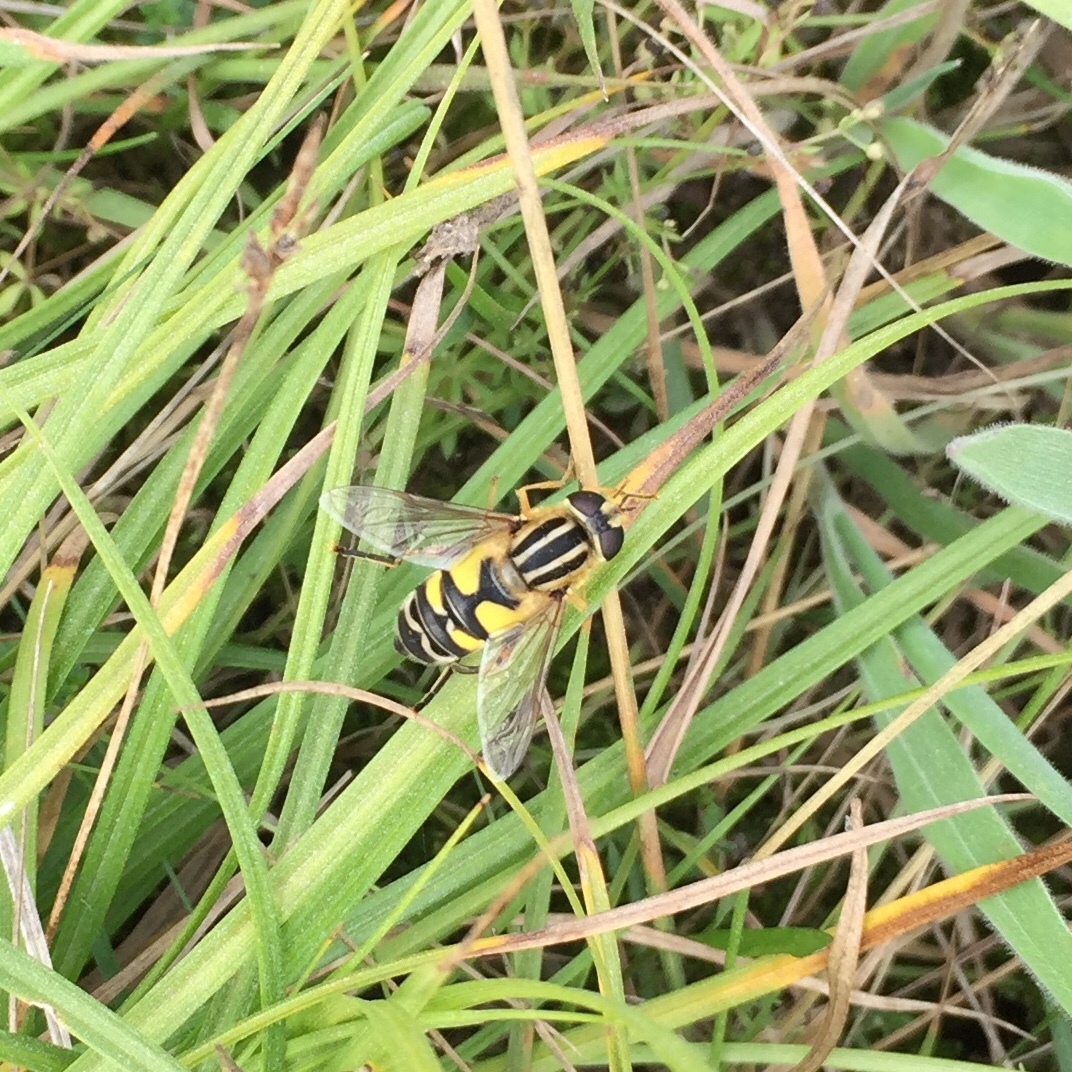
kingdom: Animalia
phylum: Arthropoda
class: Insecta
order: Diptera
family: Syrphidae
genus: Helophilus
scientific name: Helophilus trivittatus
